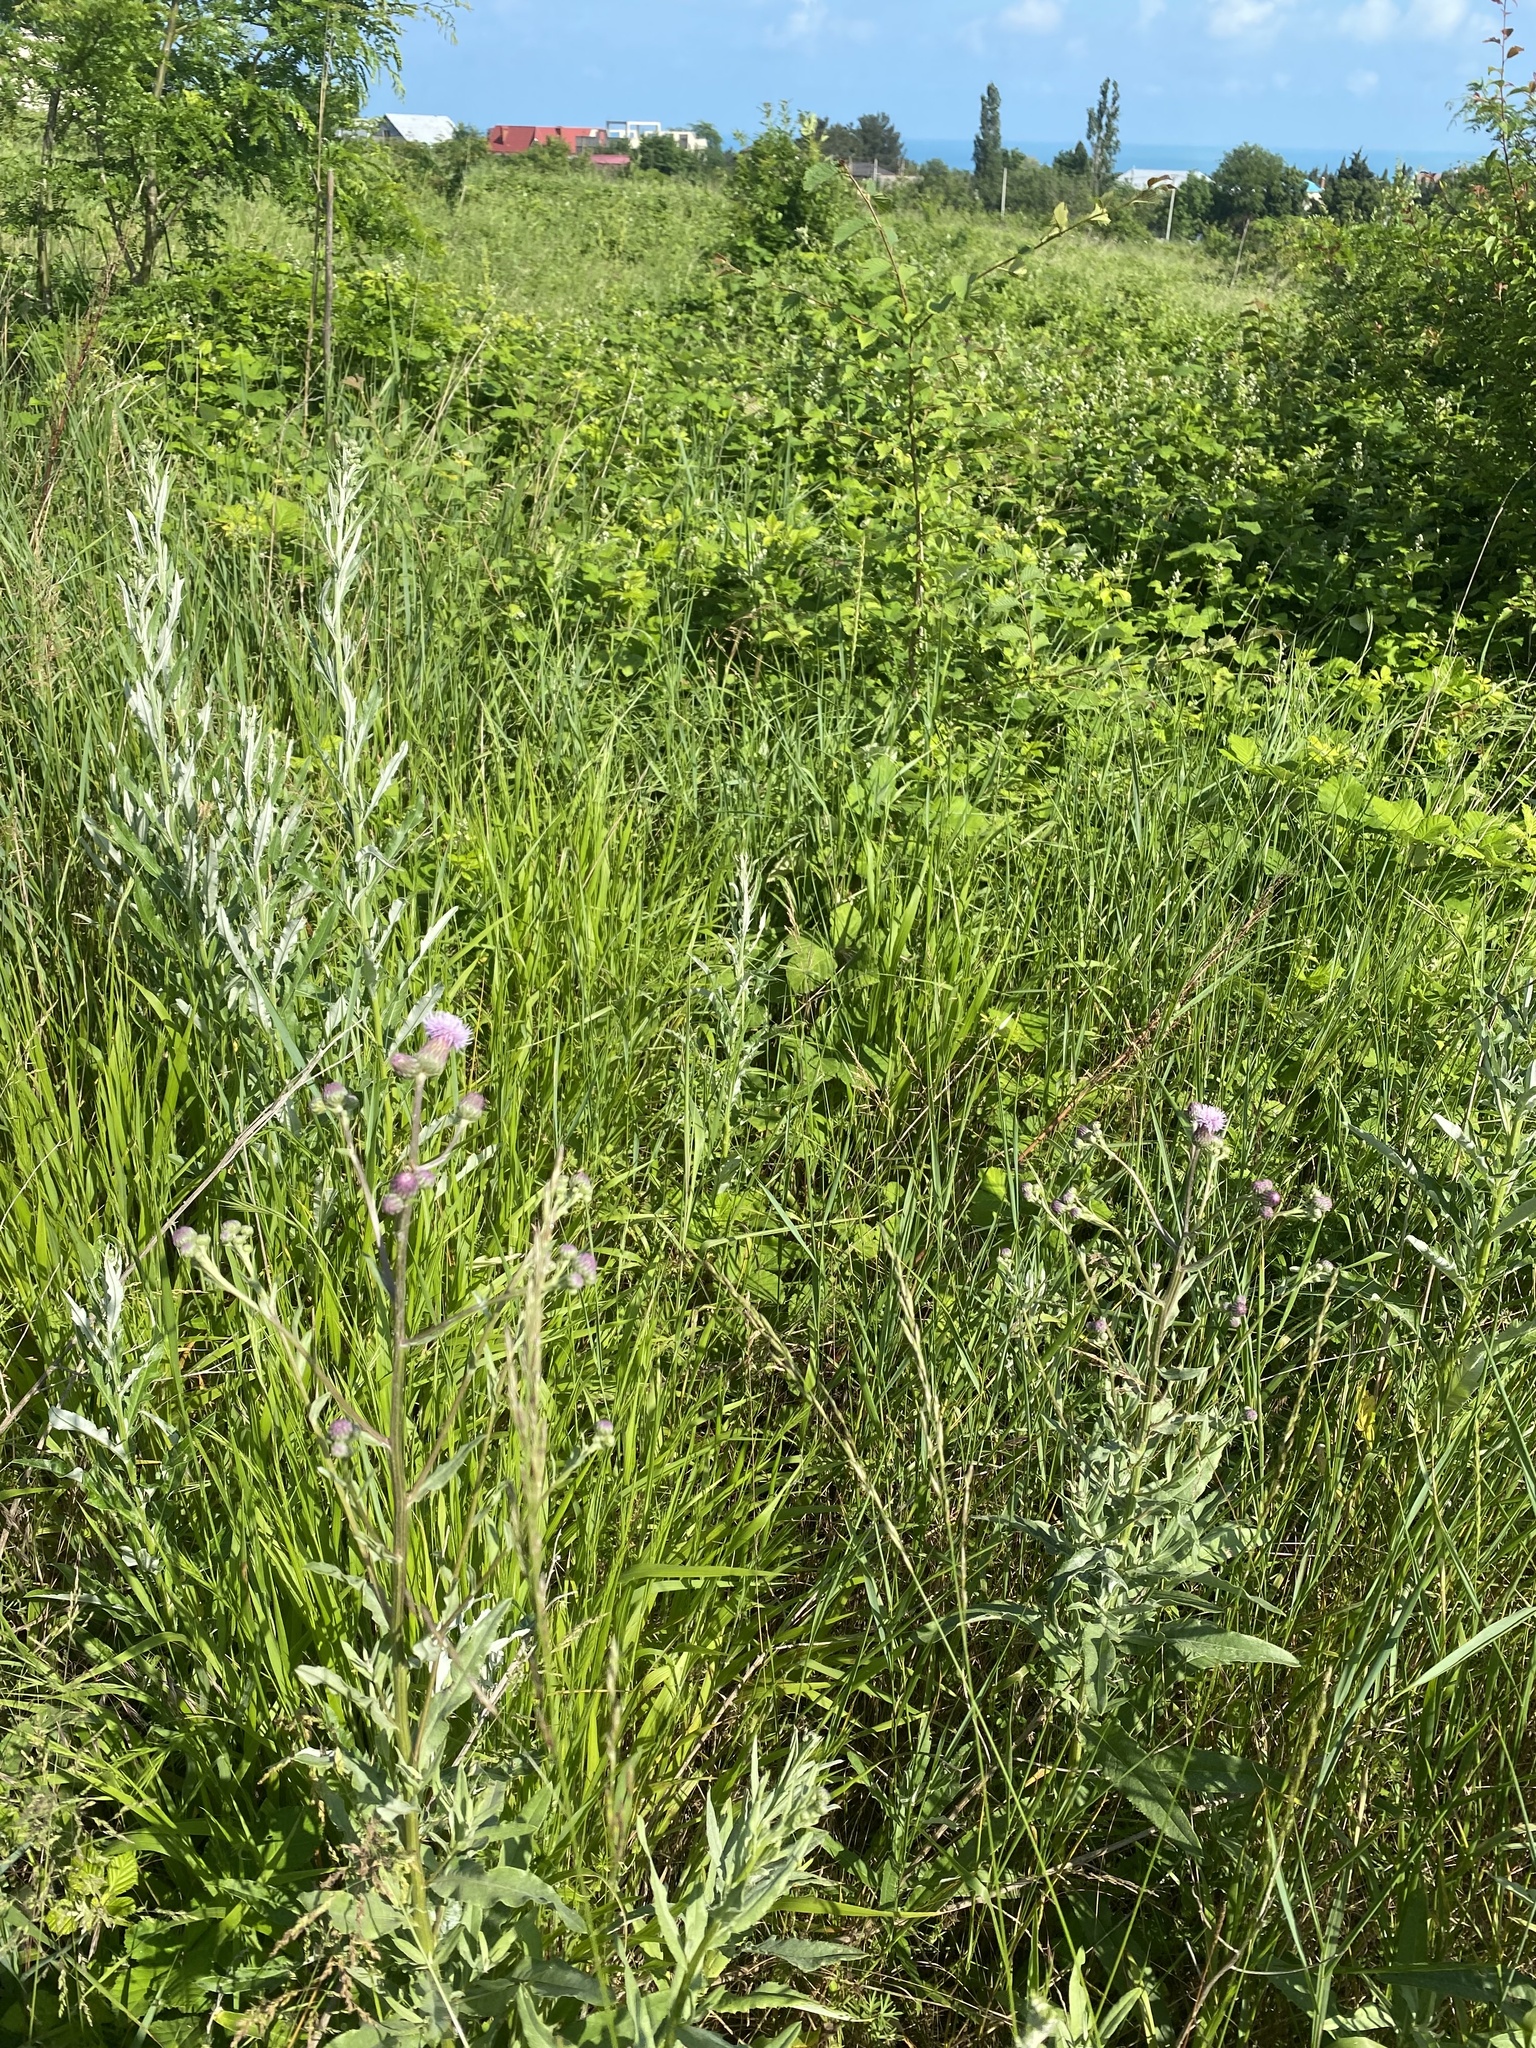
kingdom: Plantae
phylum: Tracheophyta
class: Magnoliopsida
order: Asterales
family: Asteraceae
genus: Cirsium
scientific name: Cirsium arvense
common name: Creeping thistle
